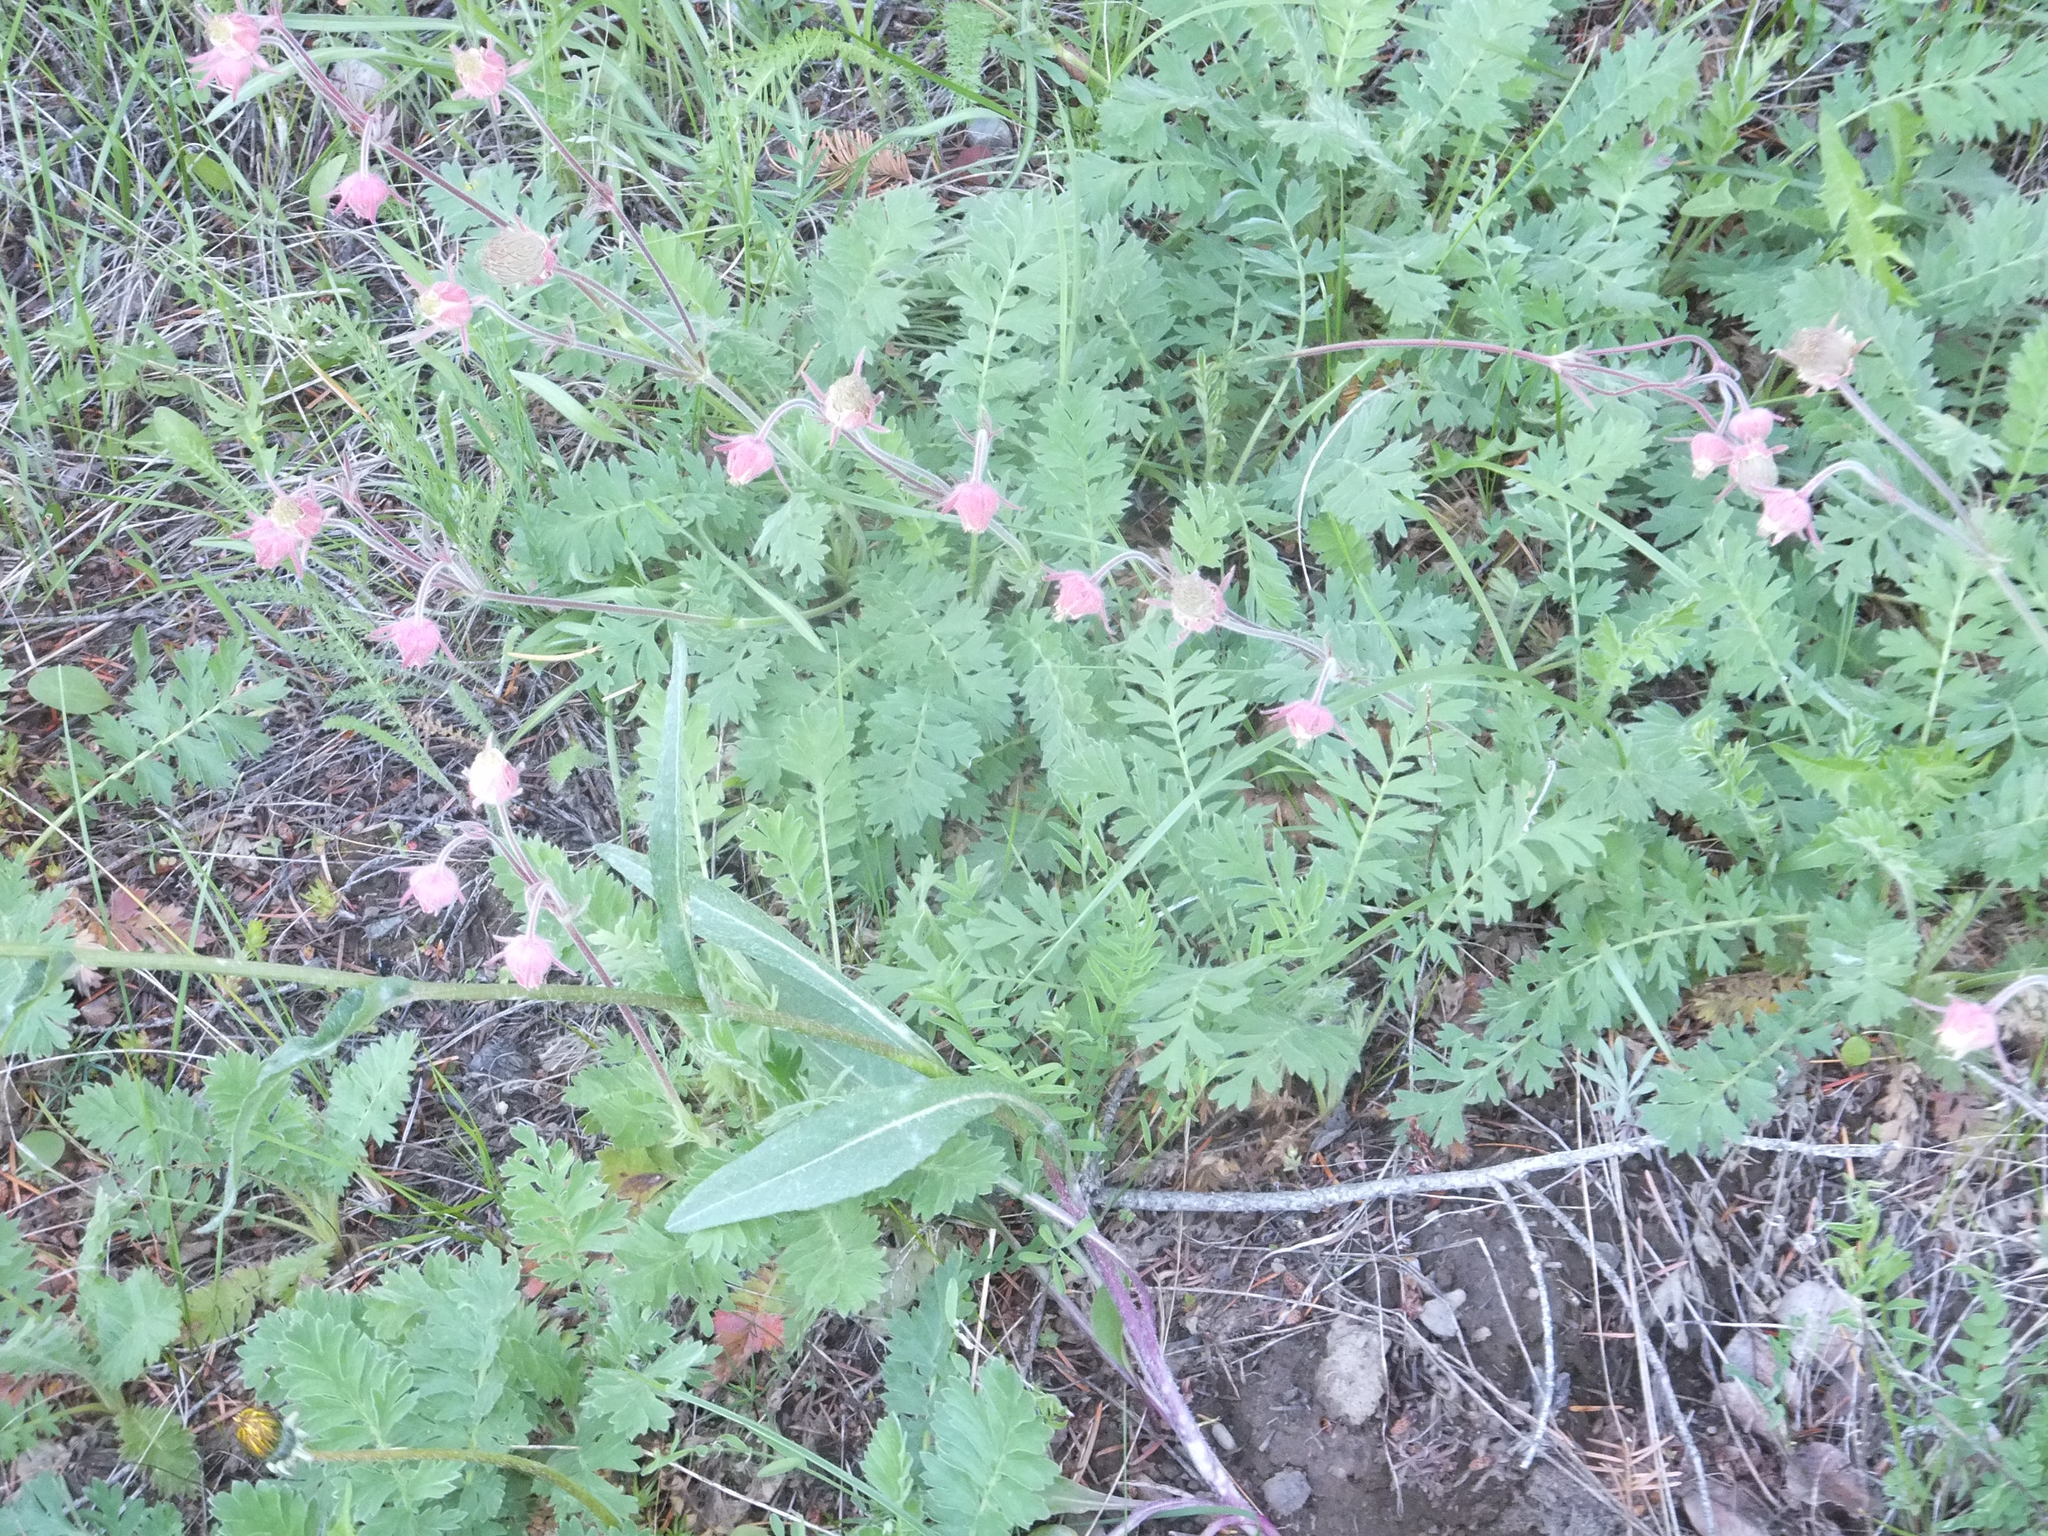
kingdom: Plantae
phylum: Tracheophyta
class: Magnoliopsida
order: Rosales
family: Rosaceae
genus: Geum
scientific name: Geum triflorum
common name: Old man's whiskers
